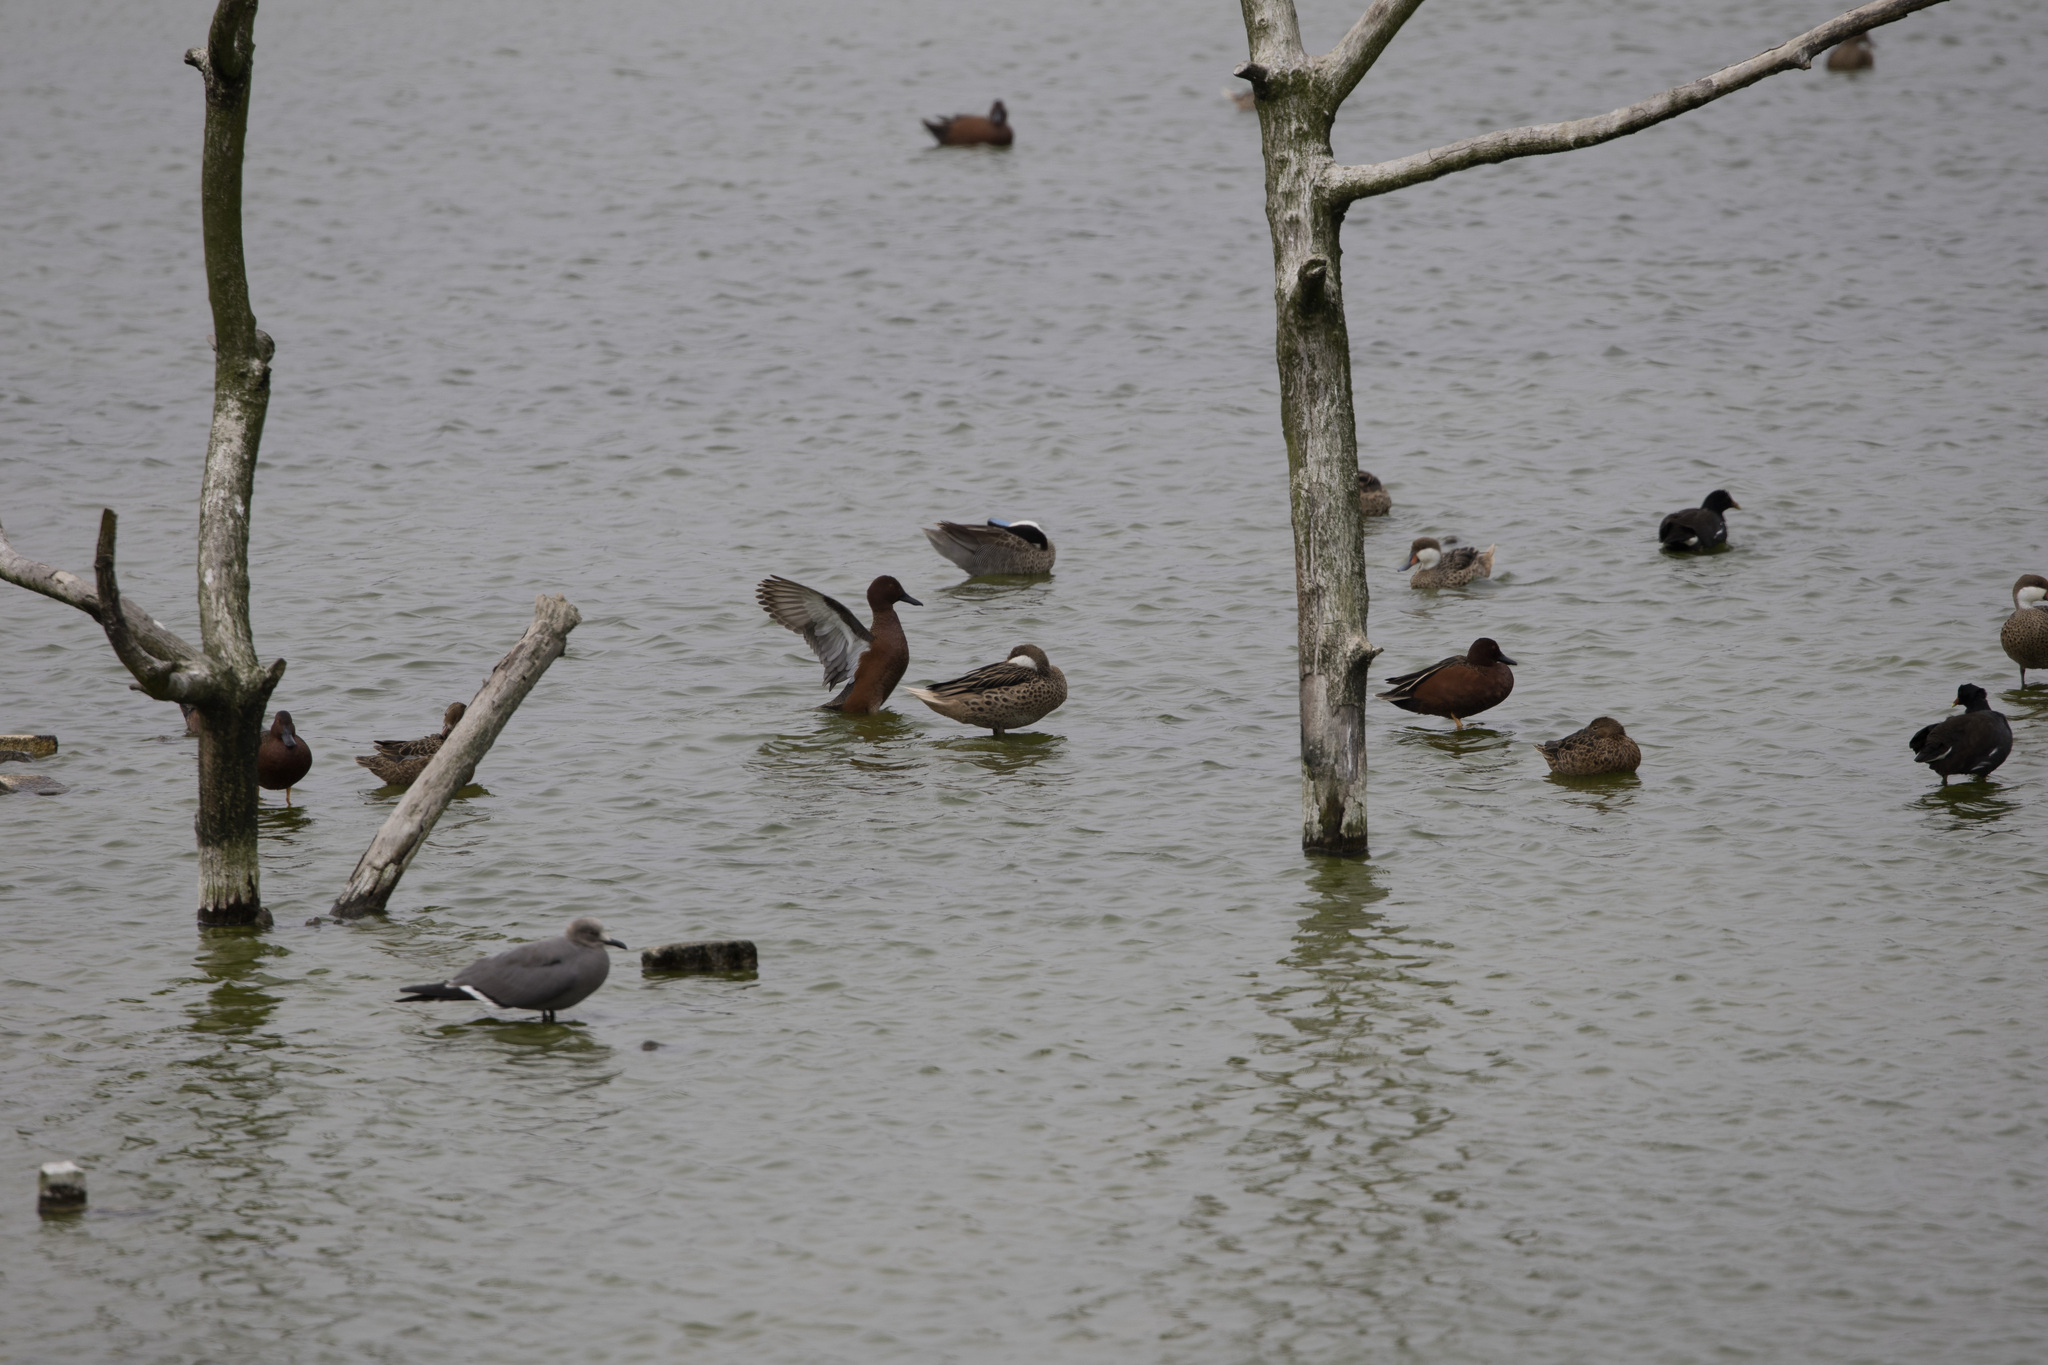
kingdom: Animalia
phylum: Chordata
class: Aves
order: Anseriformes
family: Anatidae
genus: Spatula
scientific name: Spatula puna
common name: Puna teal
